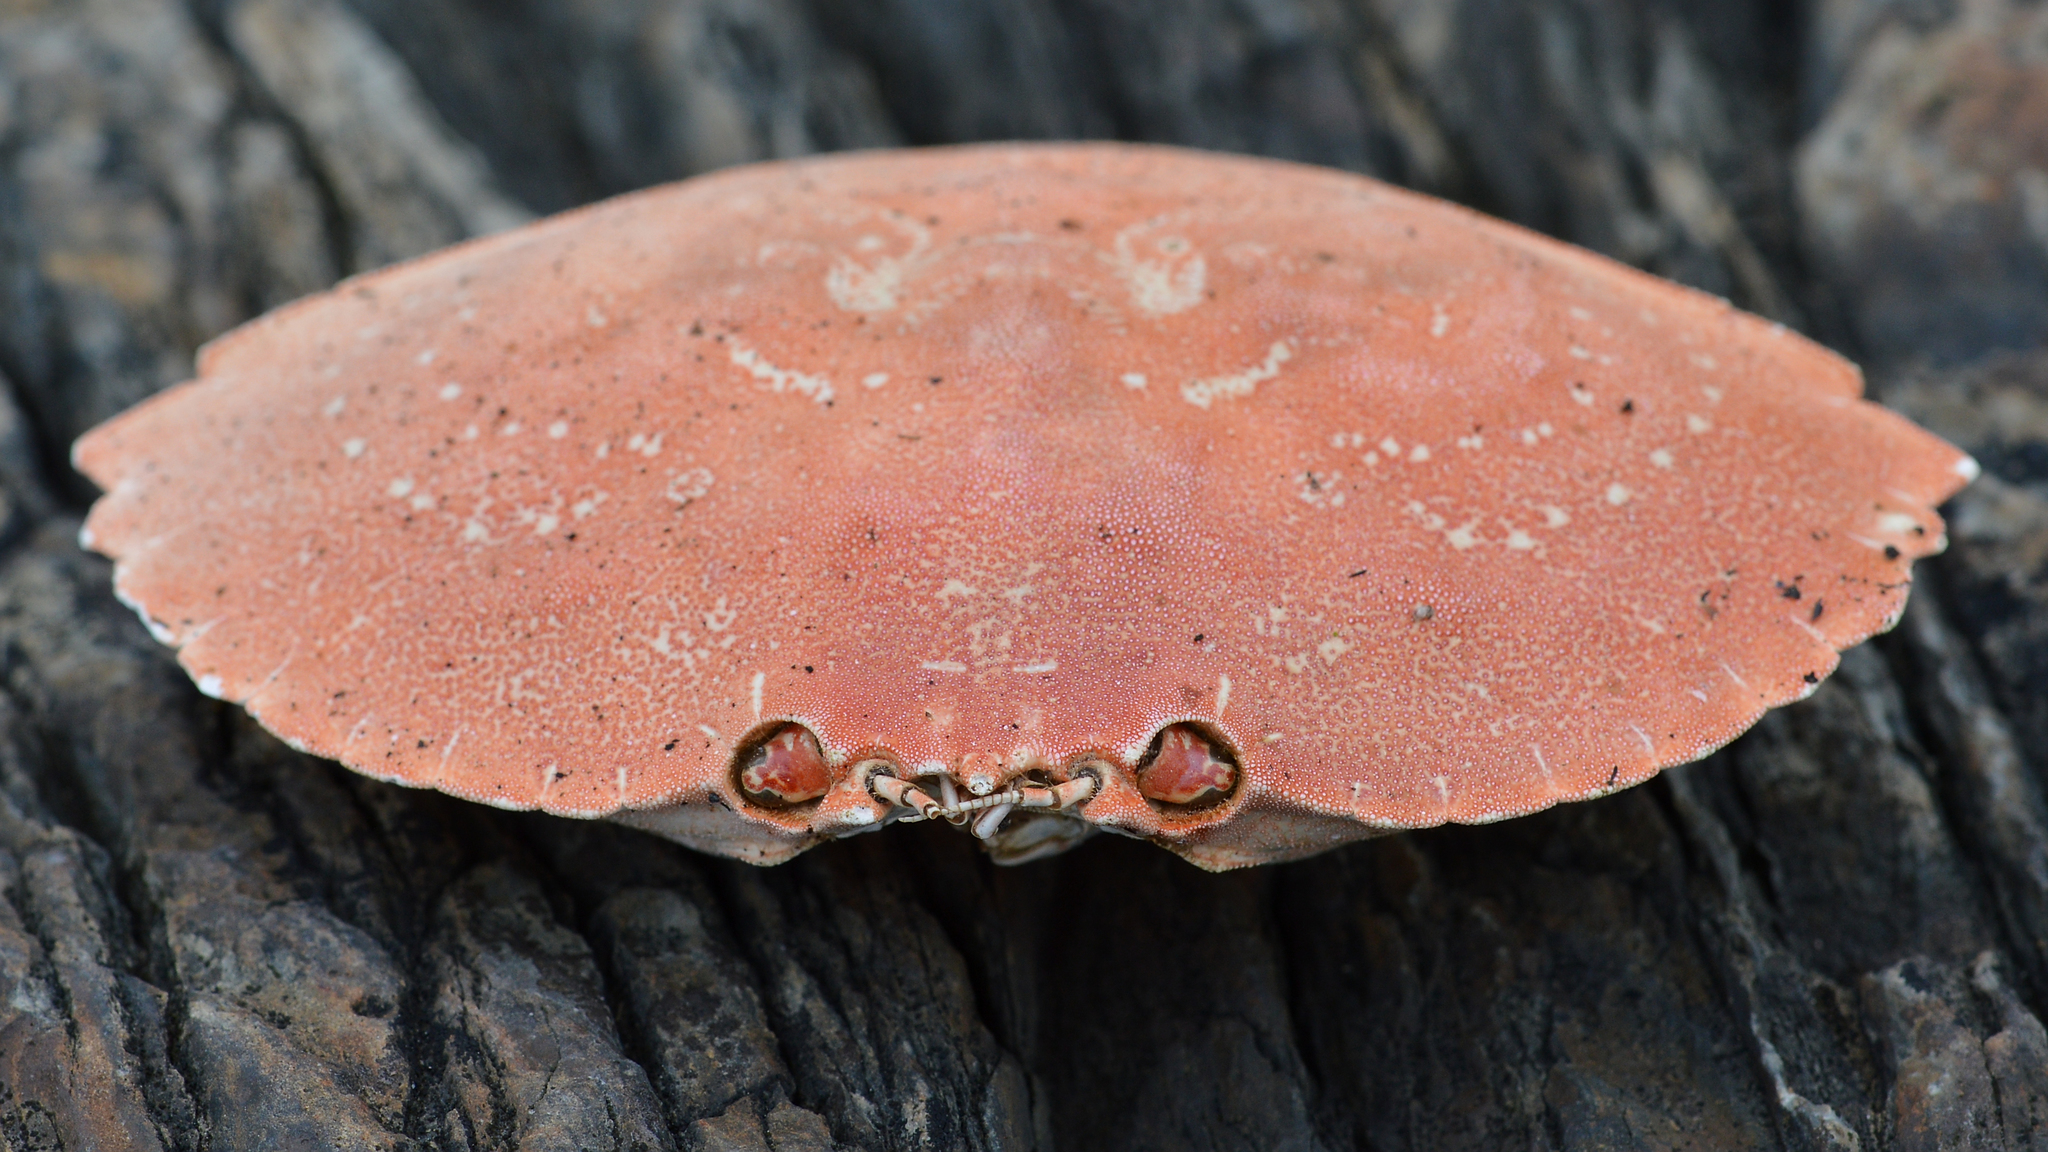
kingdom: Animalia
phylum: Arthropoda
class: Malacostraca
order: Decapoda
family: Cancridae
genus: Cancer
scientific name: Cancer irroratus
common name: Atlantic rock crab
